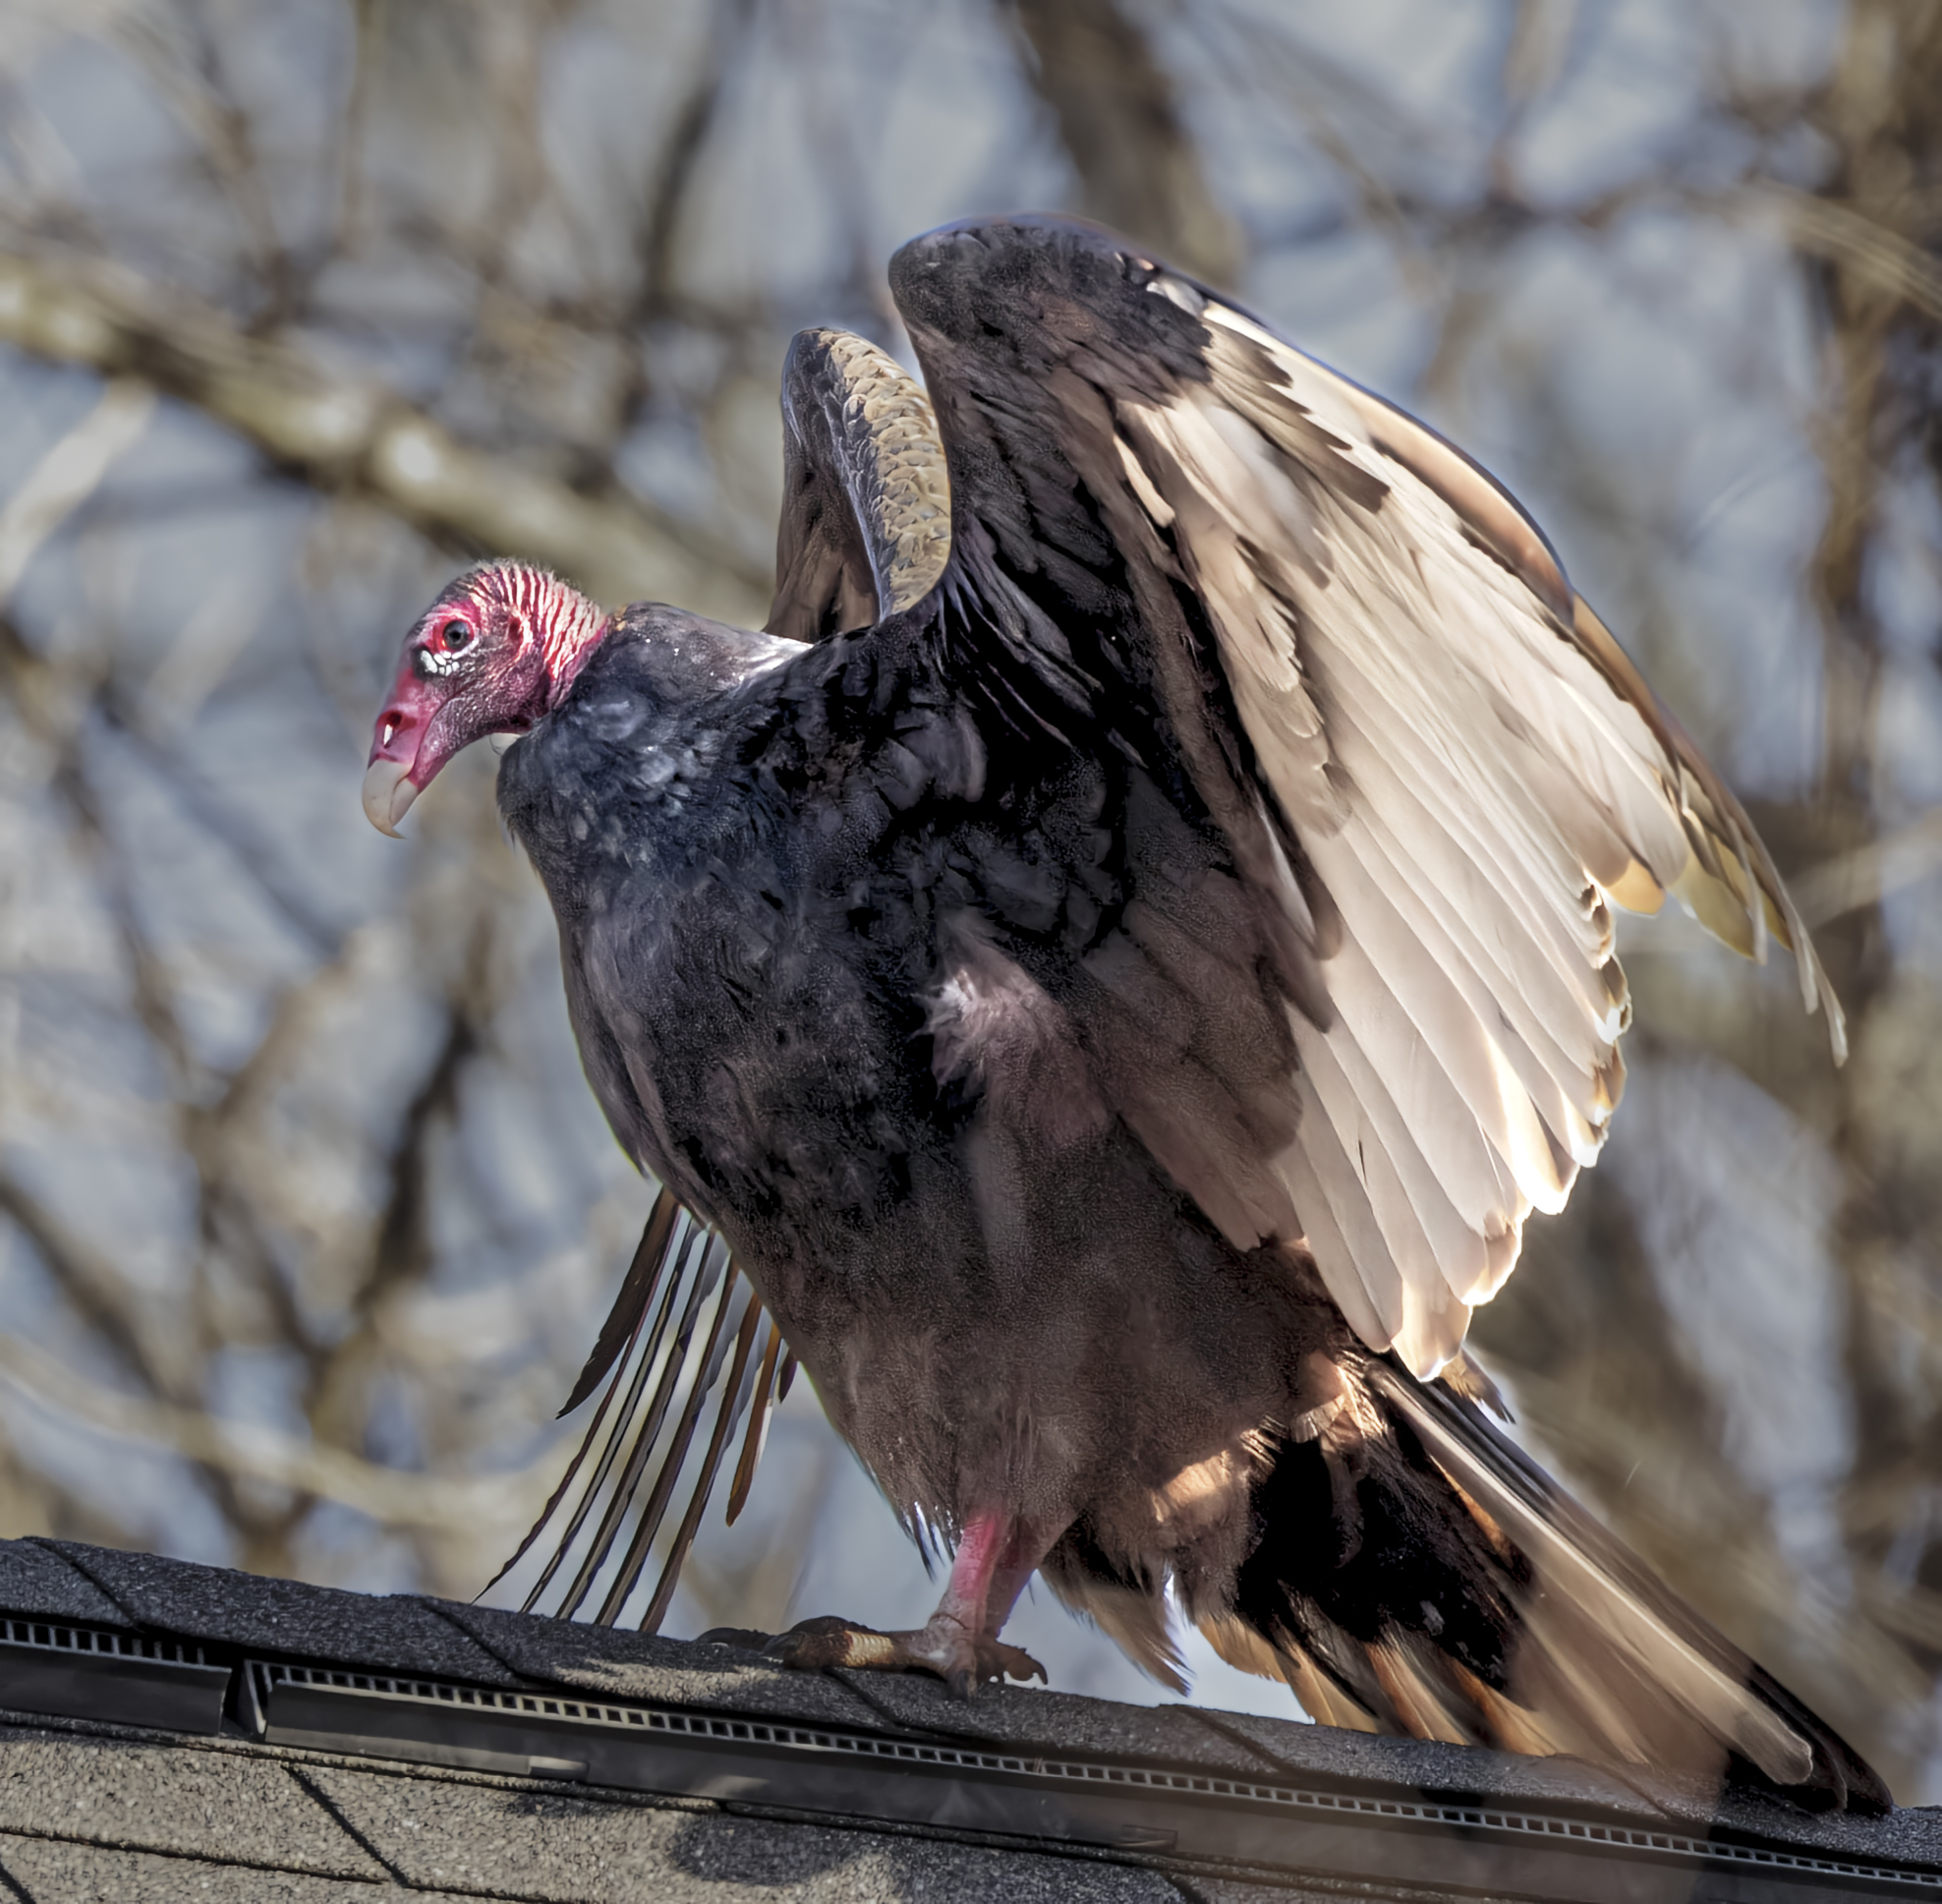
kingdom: Animalia
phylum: Chordata
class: Aves
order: Accipitriformes
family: Cathartidae
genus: Cathartes
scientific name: Cathartes aura
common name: Turkey vulture
